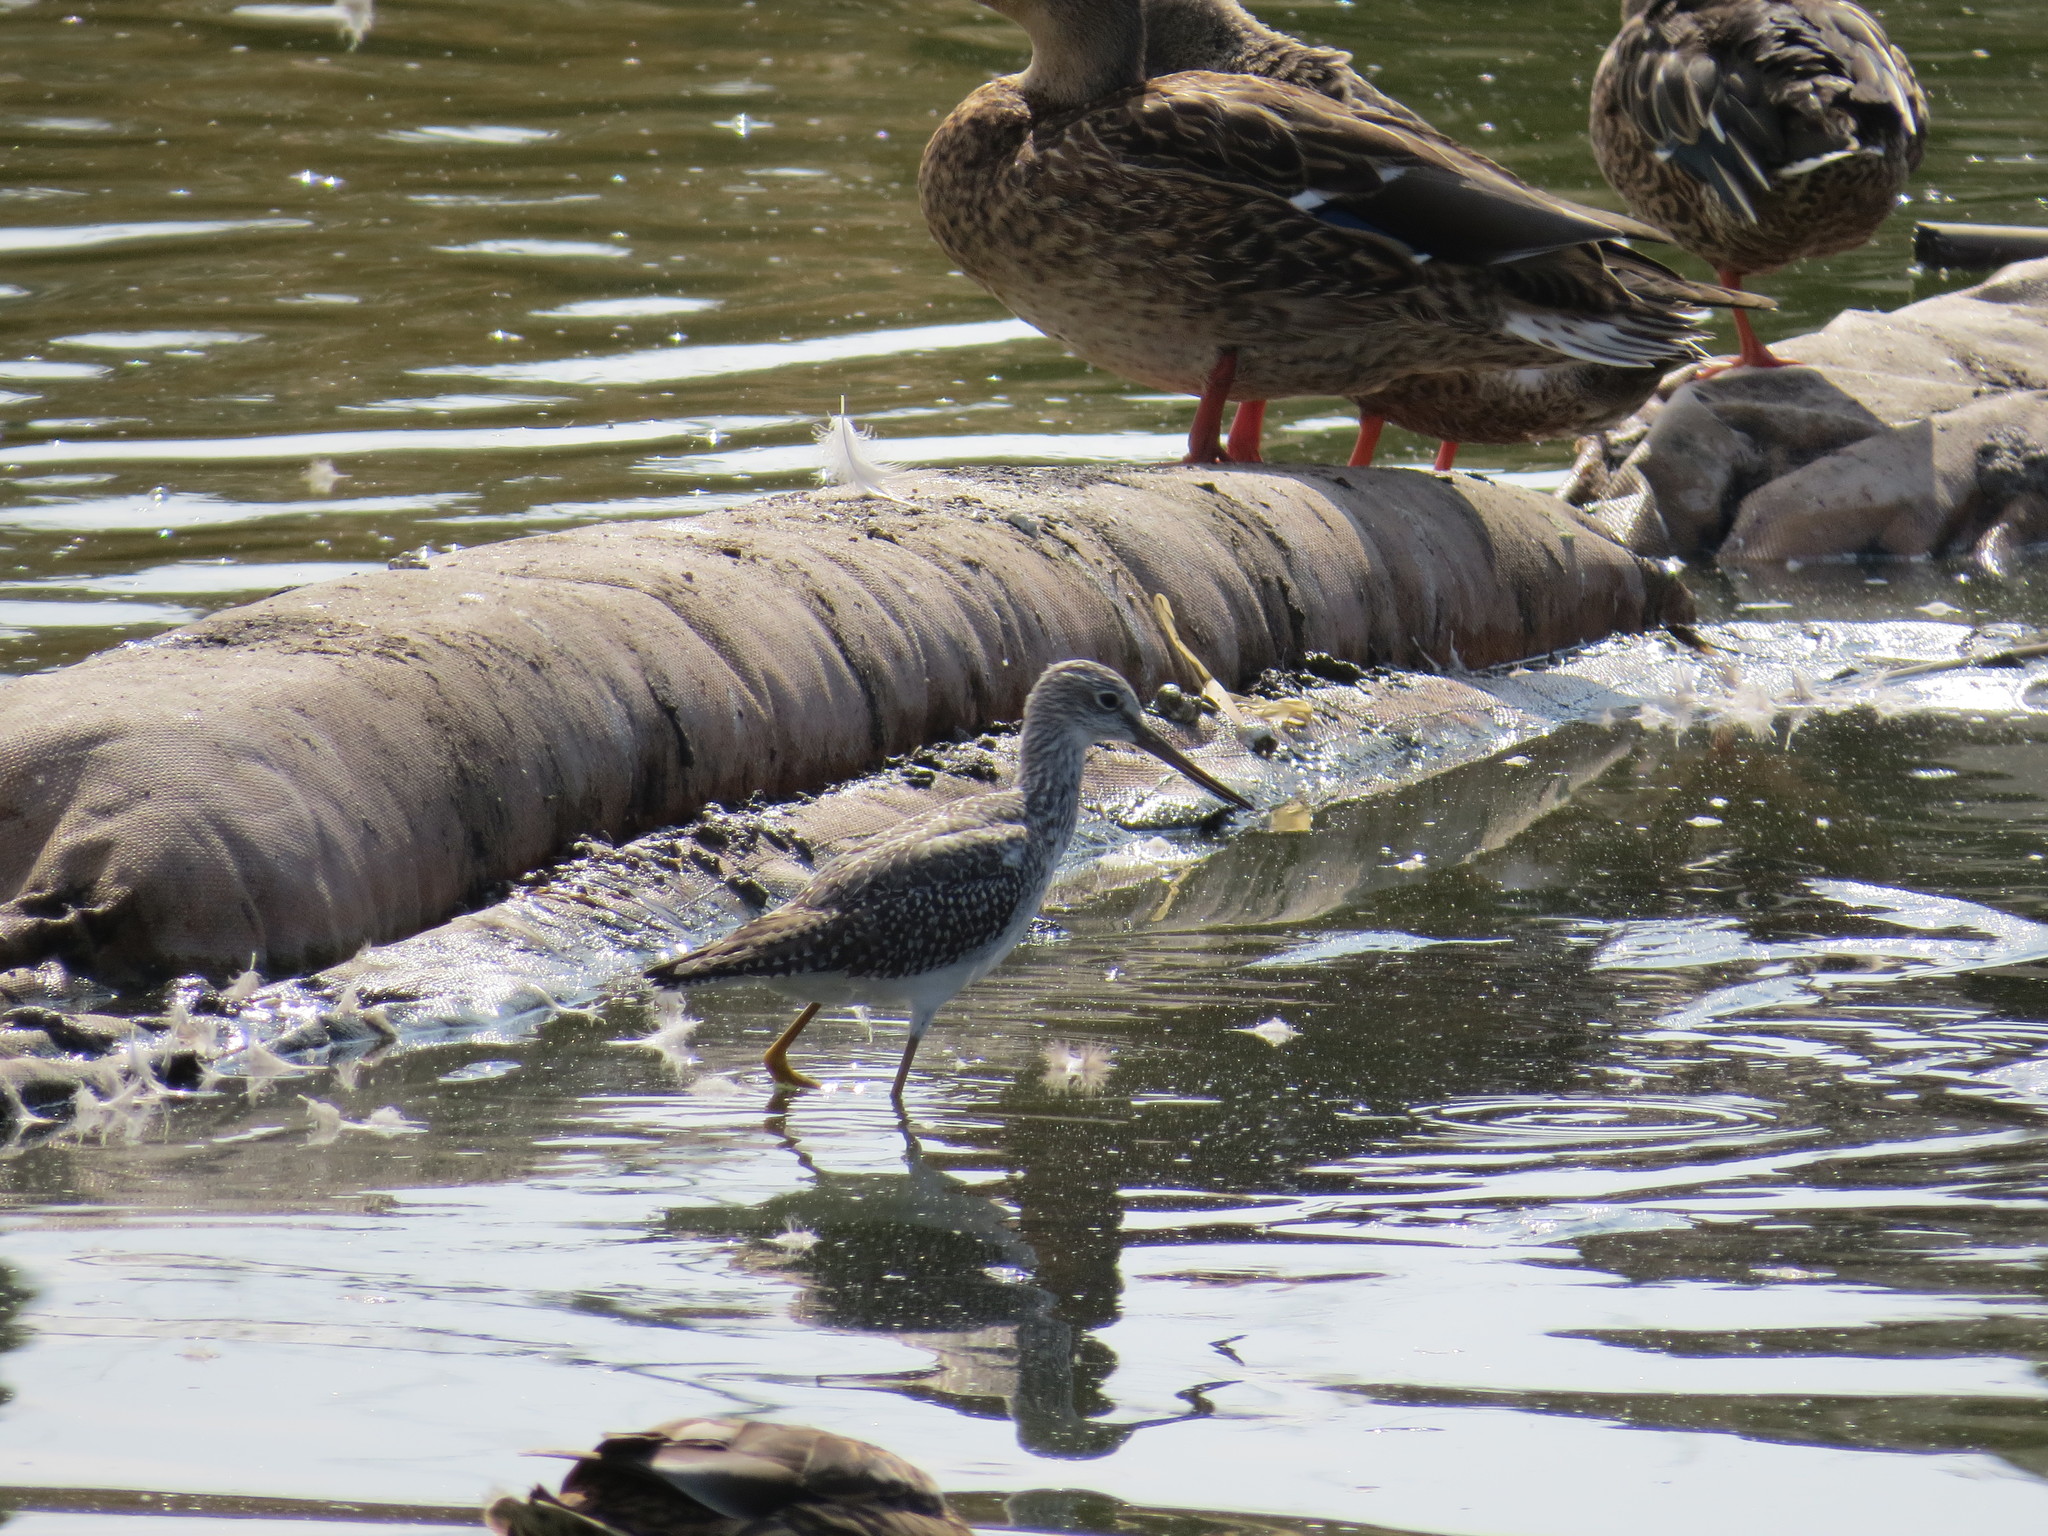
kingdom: Animalia
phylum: Chordata
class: Aves
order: Charadriiformes
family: Scolopacidae
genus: Tringa
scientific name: Tringa melanoleuca
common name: Greater yellowlegs
